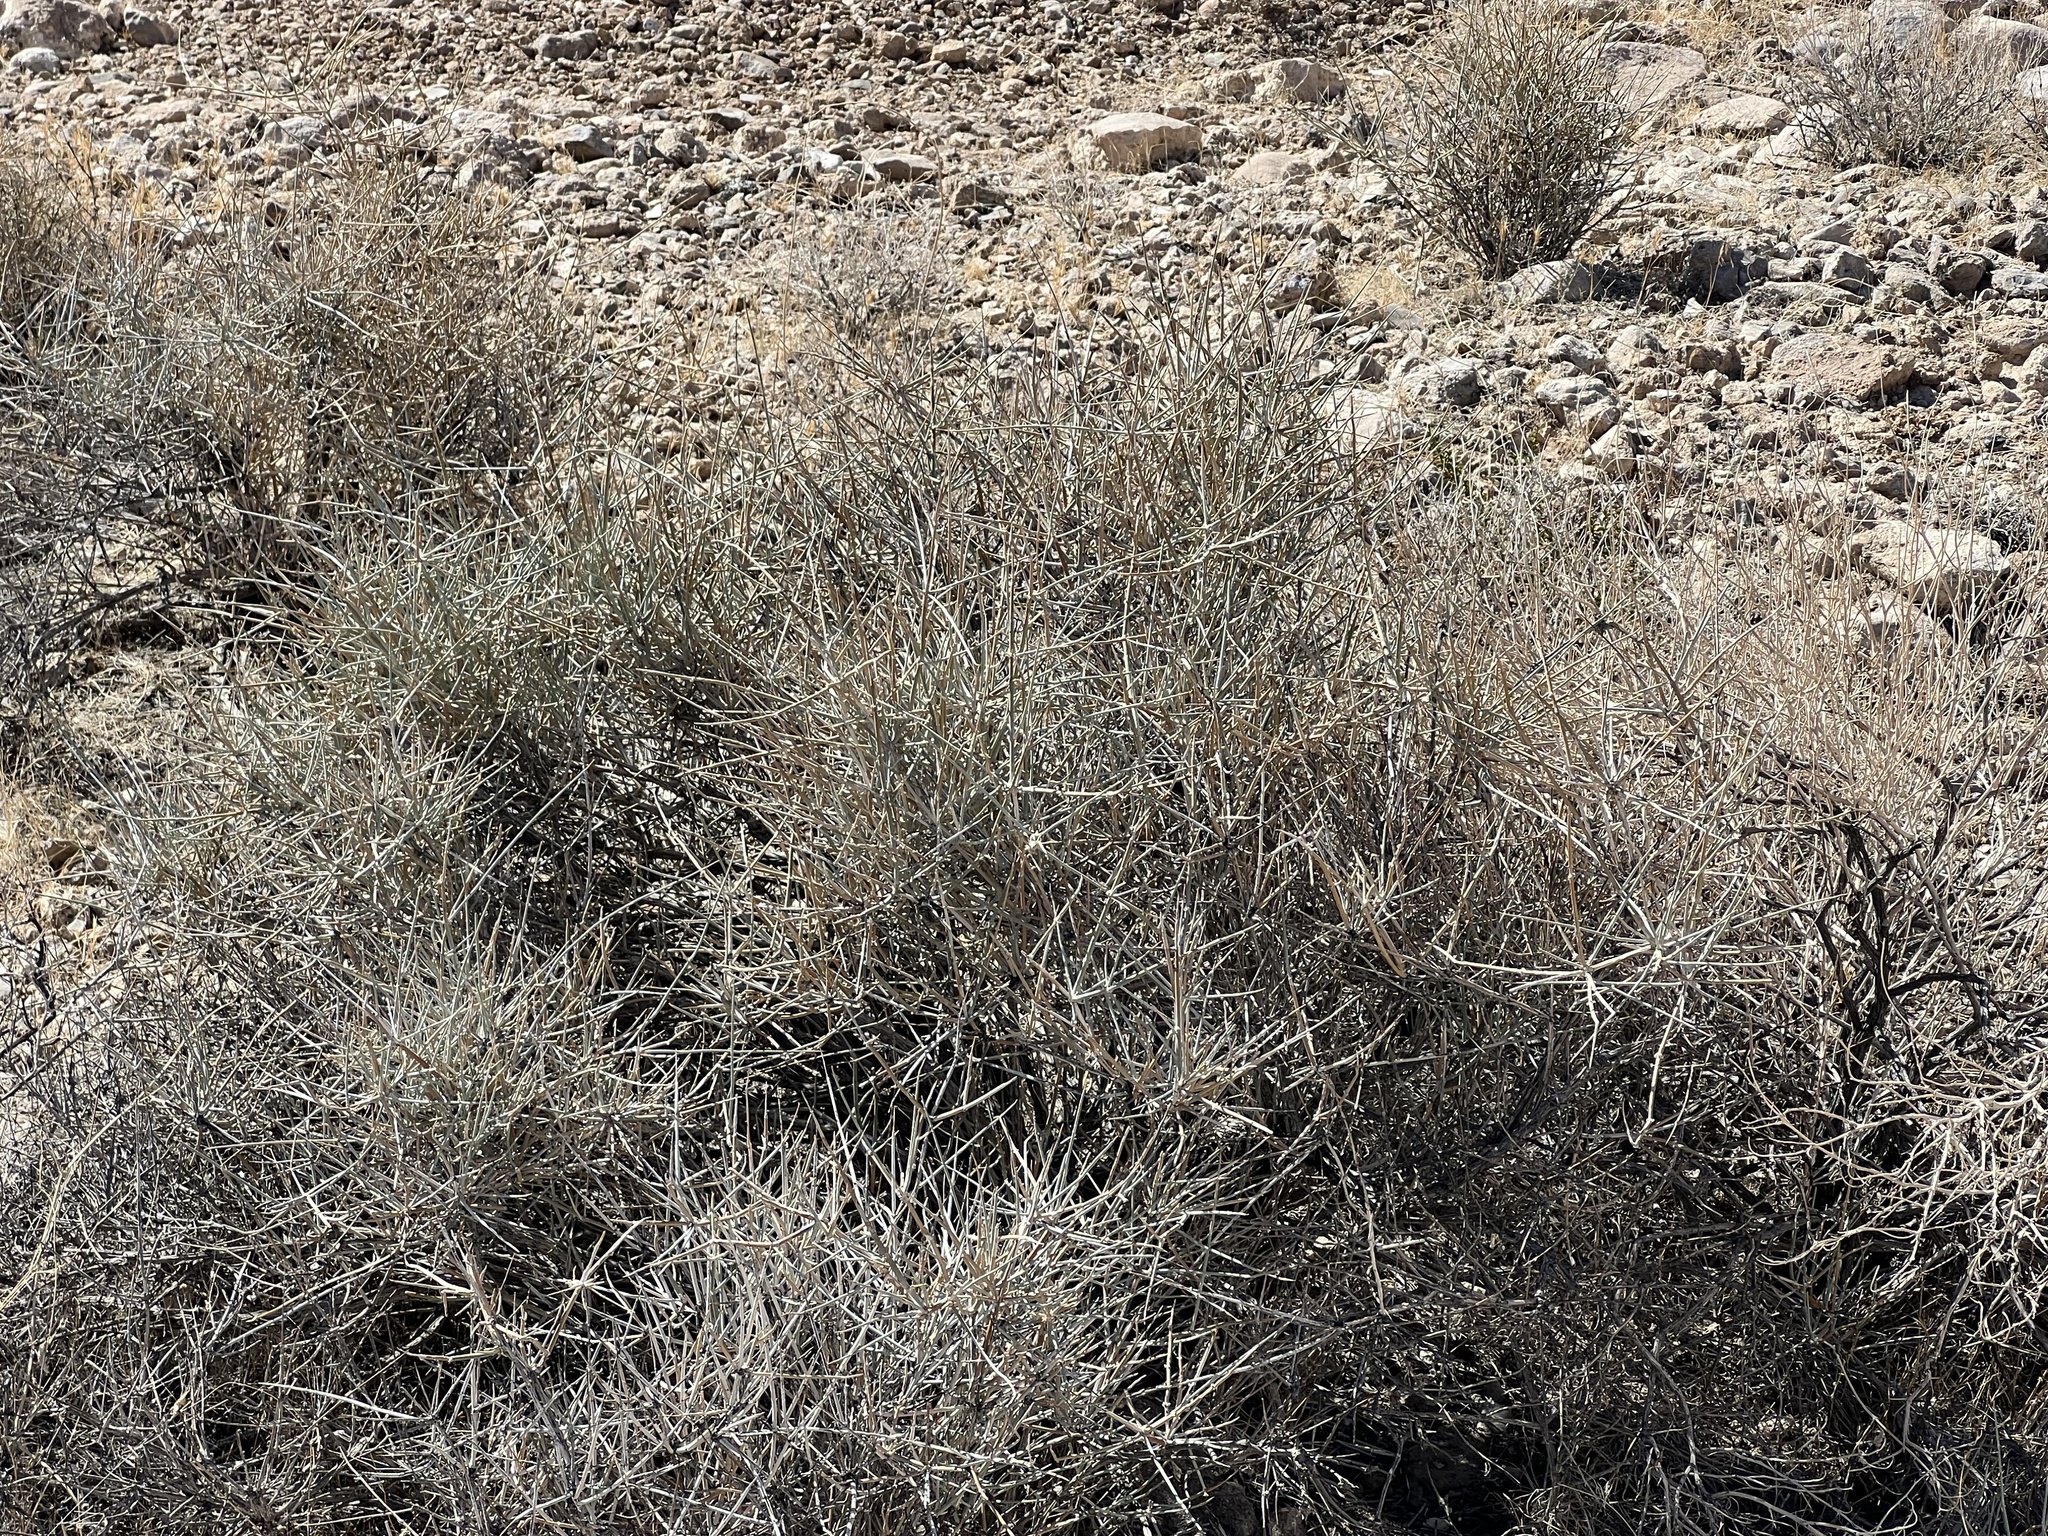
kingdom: Plantae
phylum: Tracheophyta
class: Gnetopsida
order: Ephedrales
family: Ephedraceae
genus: Ephedra
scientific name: Ephedra nevadensis
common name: Gray ephedra
